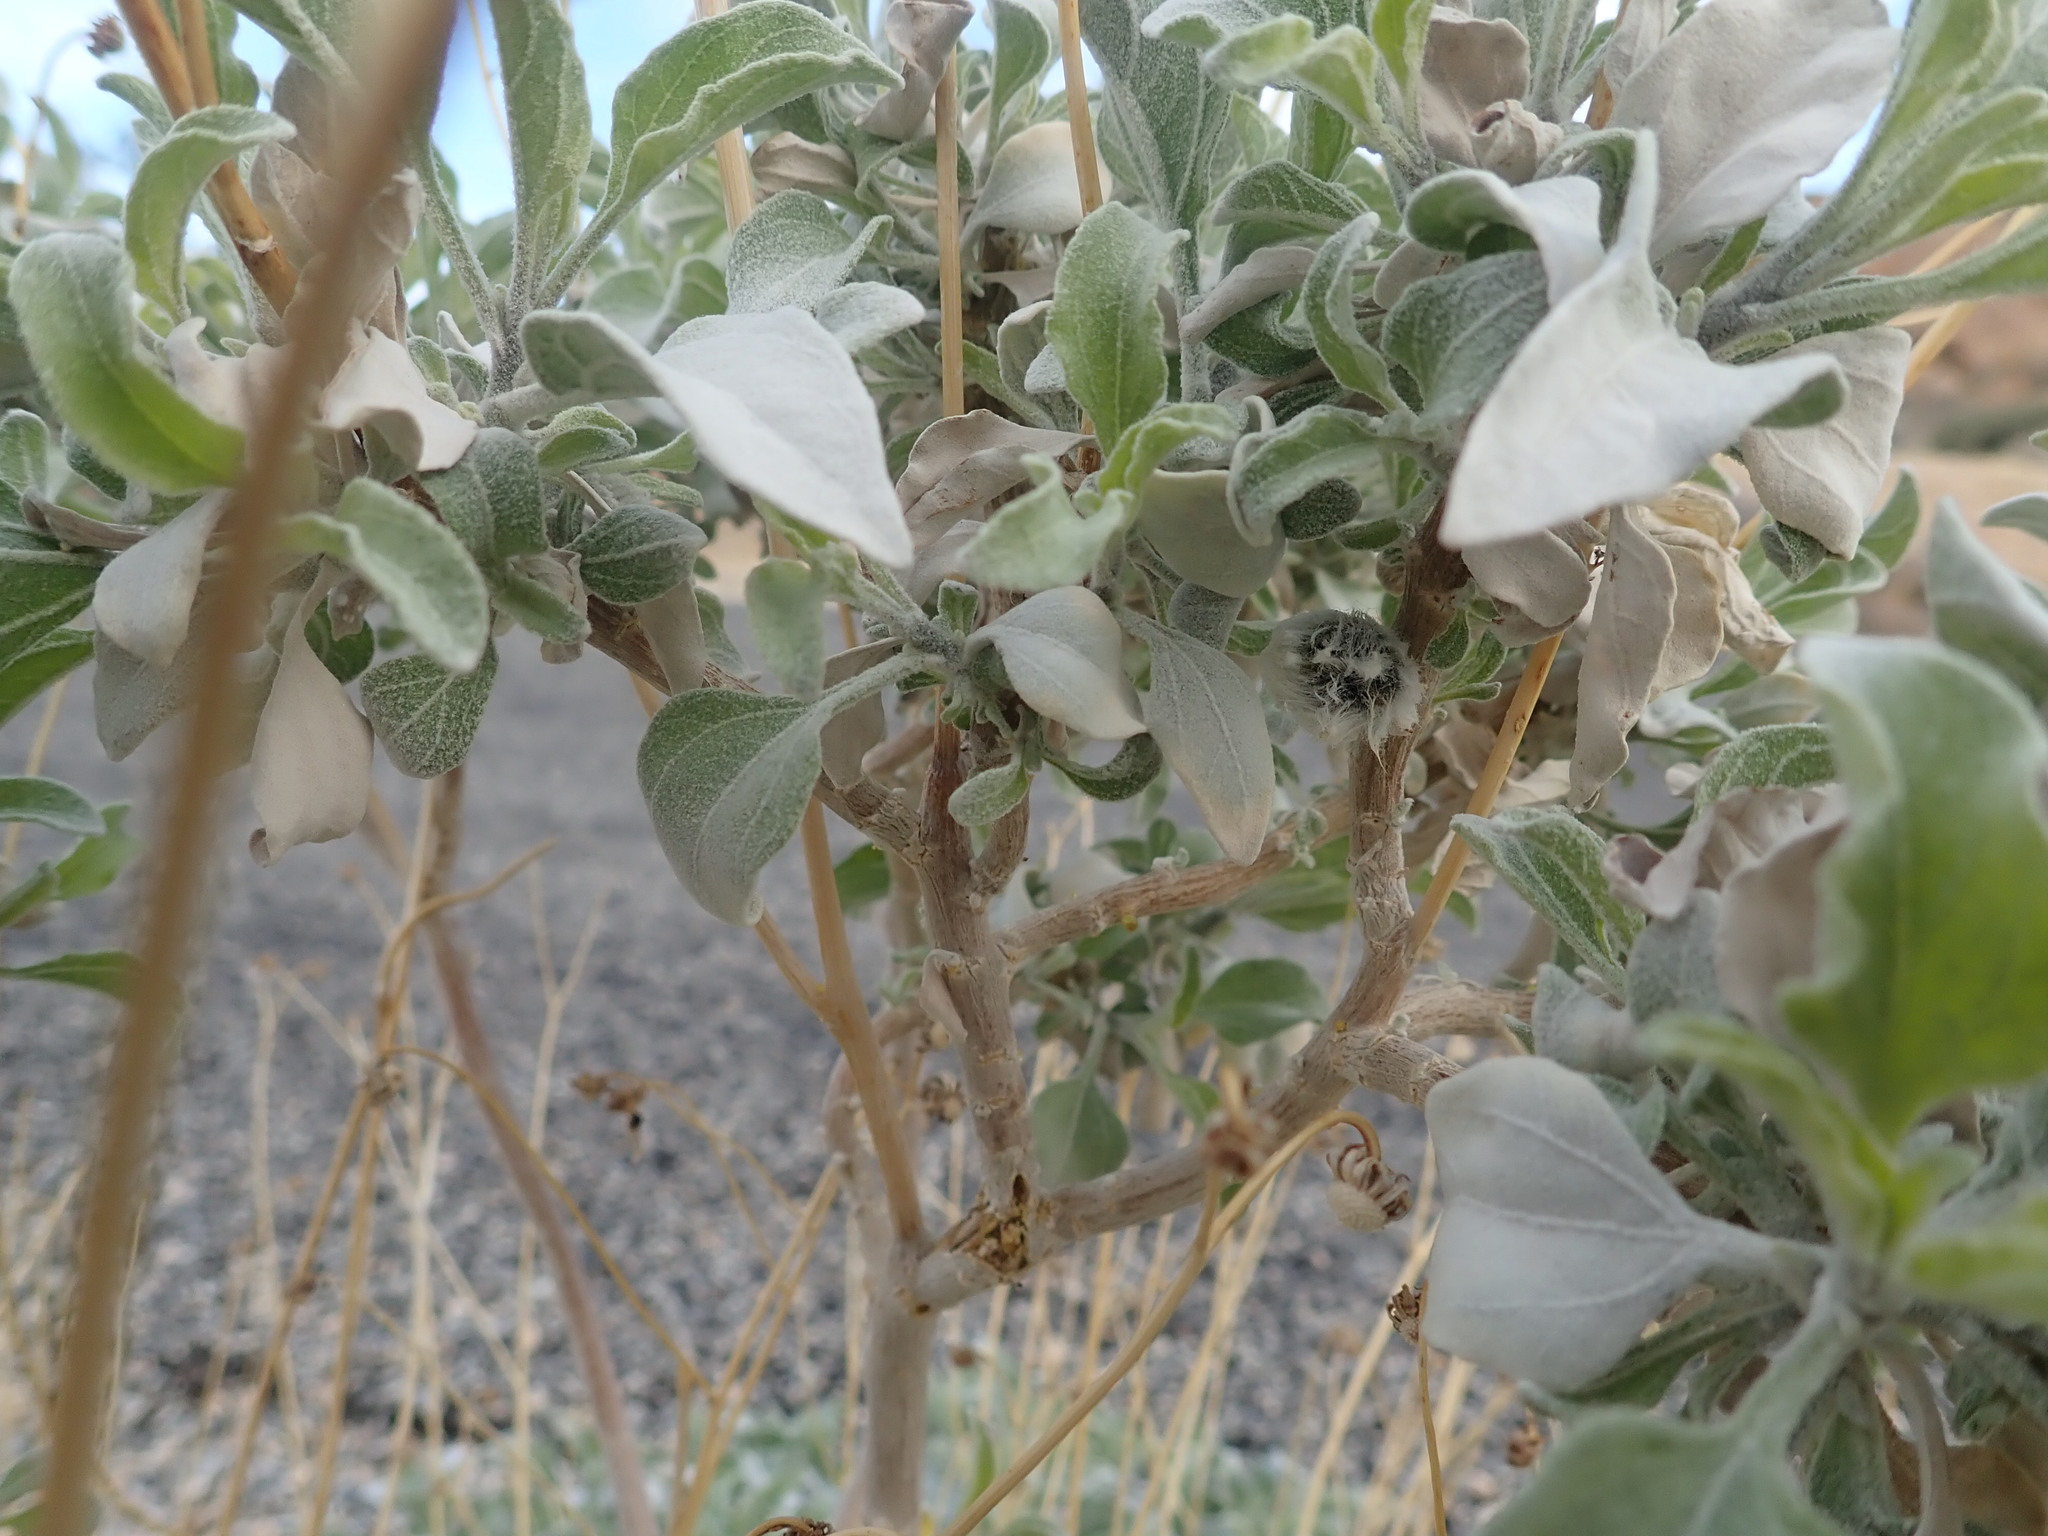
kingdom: Plantae
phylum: Tracheophyta
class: Magnoliopsida
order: Asterales
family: Asteraceae
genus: Encelia
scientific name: Encelia farinosa
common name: Brittlebush
